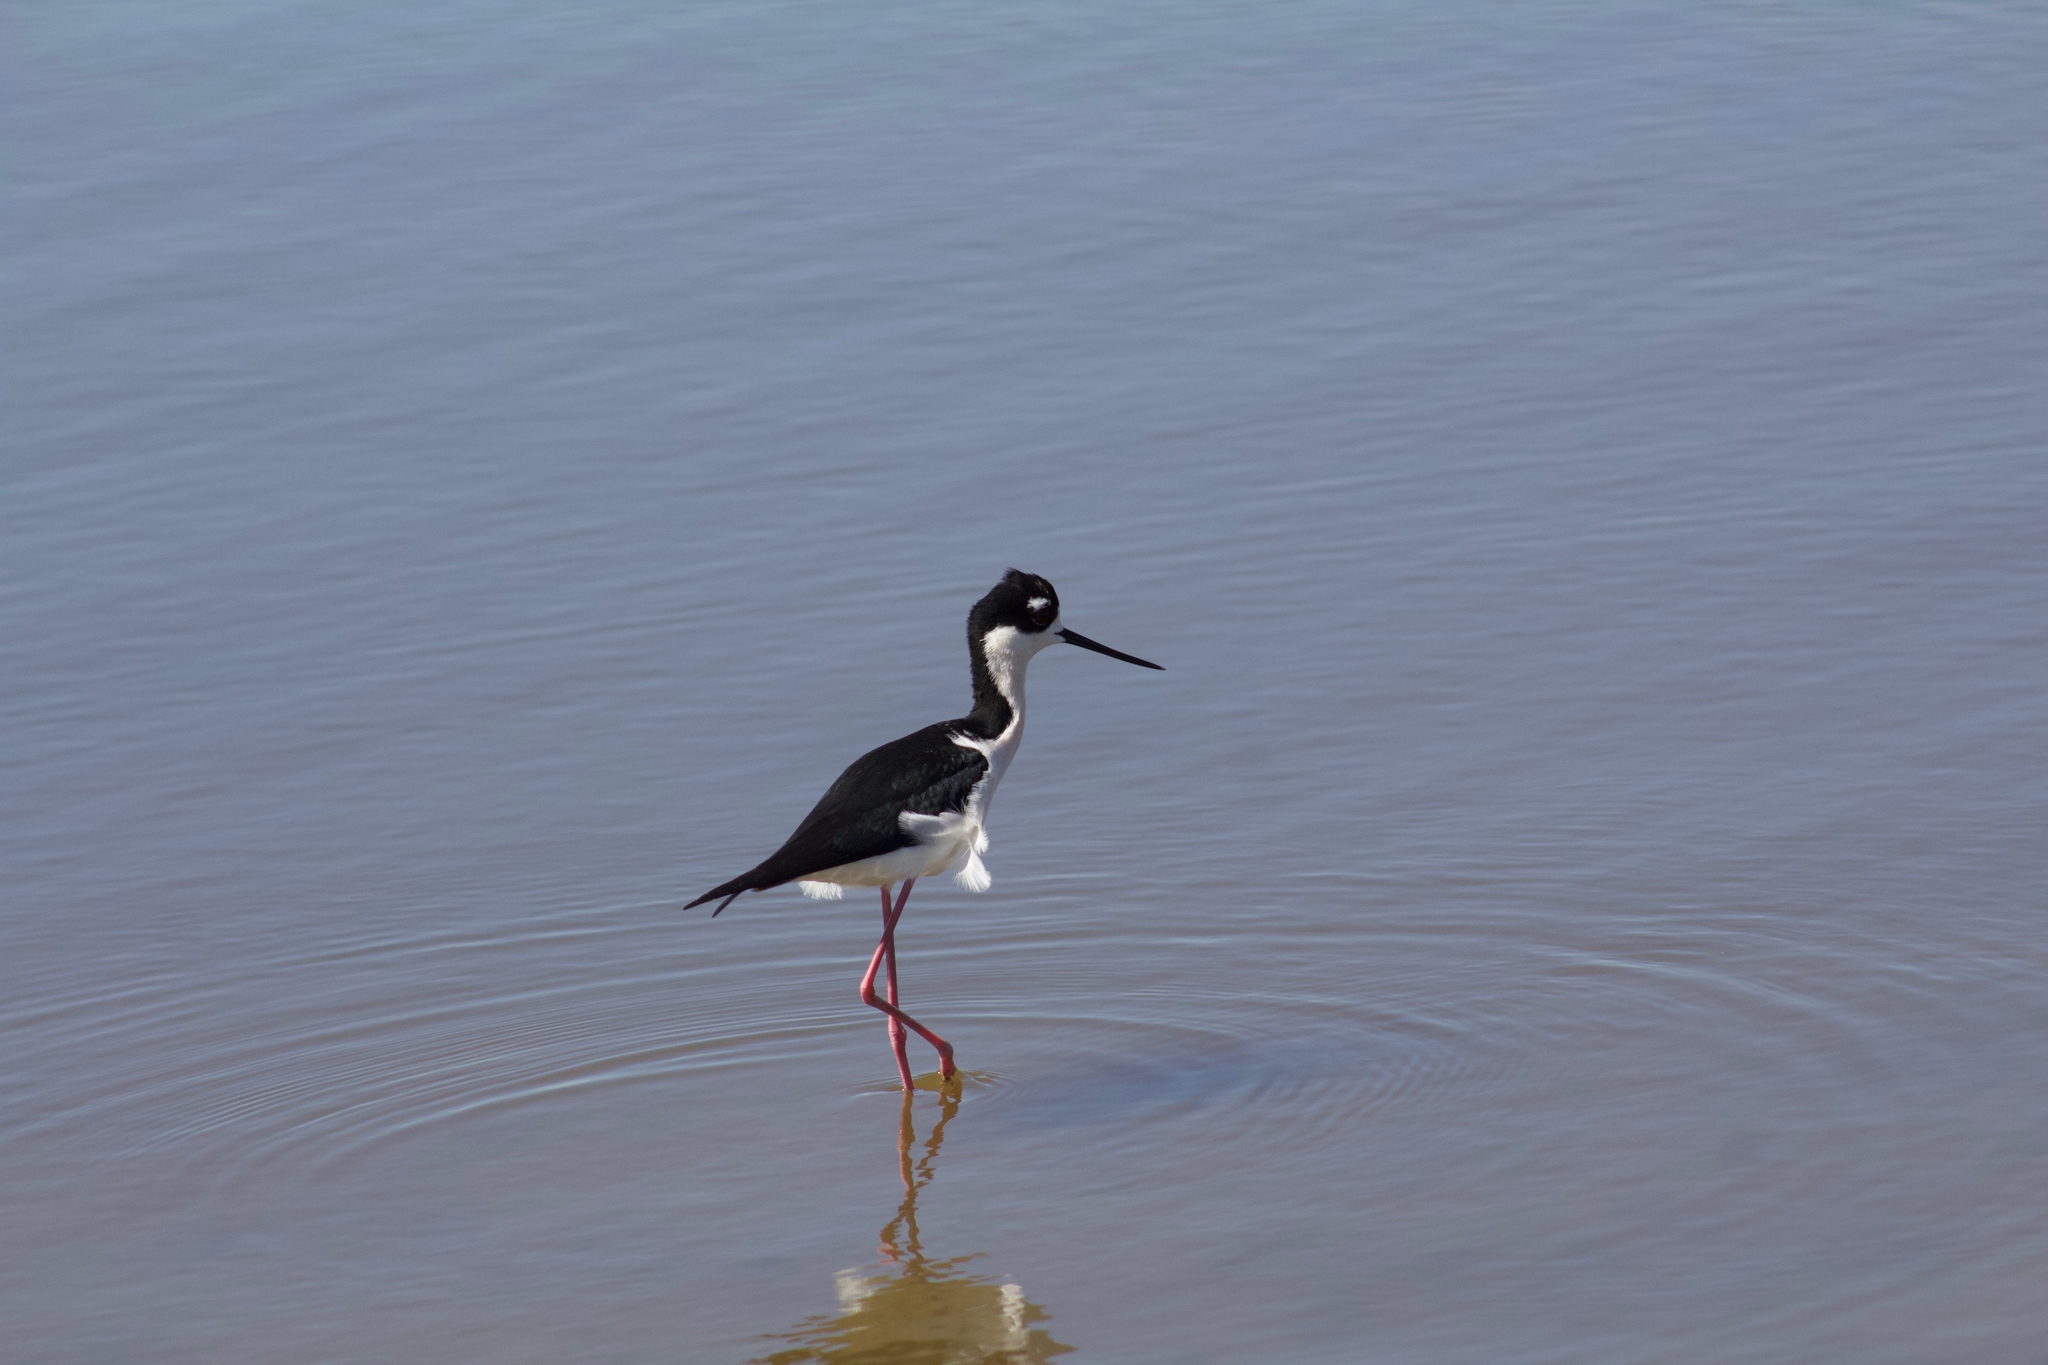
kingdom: Animalia
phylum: Chordata
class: Aves
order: Charadriiformes
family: Recurvirostridae
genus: Himantopus
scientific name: Himantopus mexicanus
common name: Black-necked stilt
